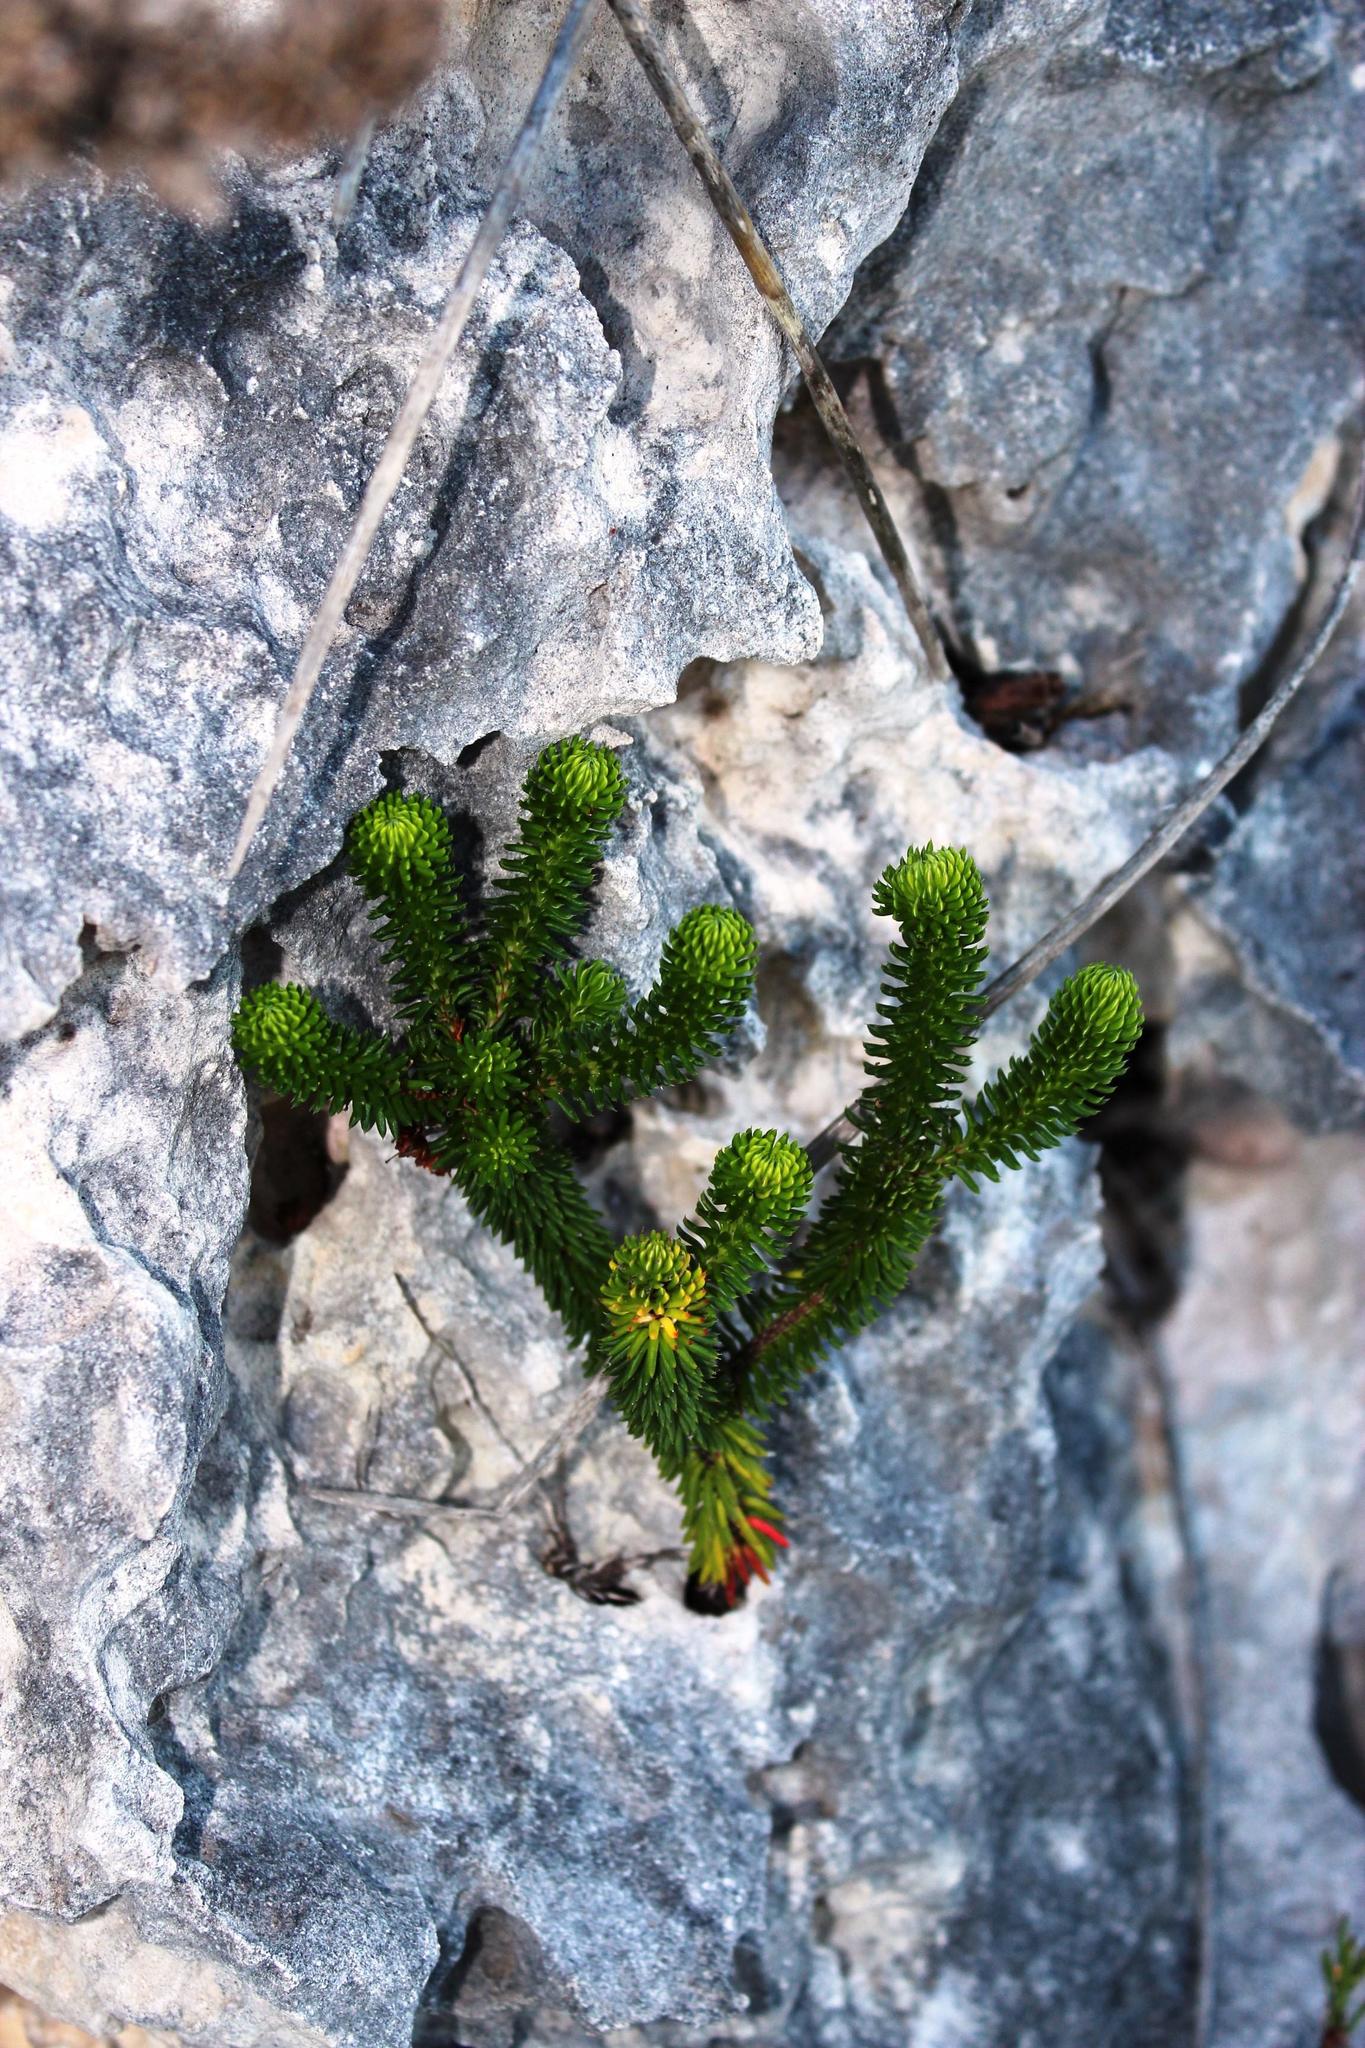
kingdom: Plantae
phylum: Tracheophyta
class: Magnoliopsida
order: Ericales
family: Ericaceae
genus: Erica
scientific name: Erica pulvinata
